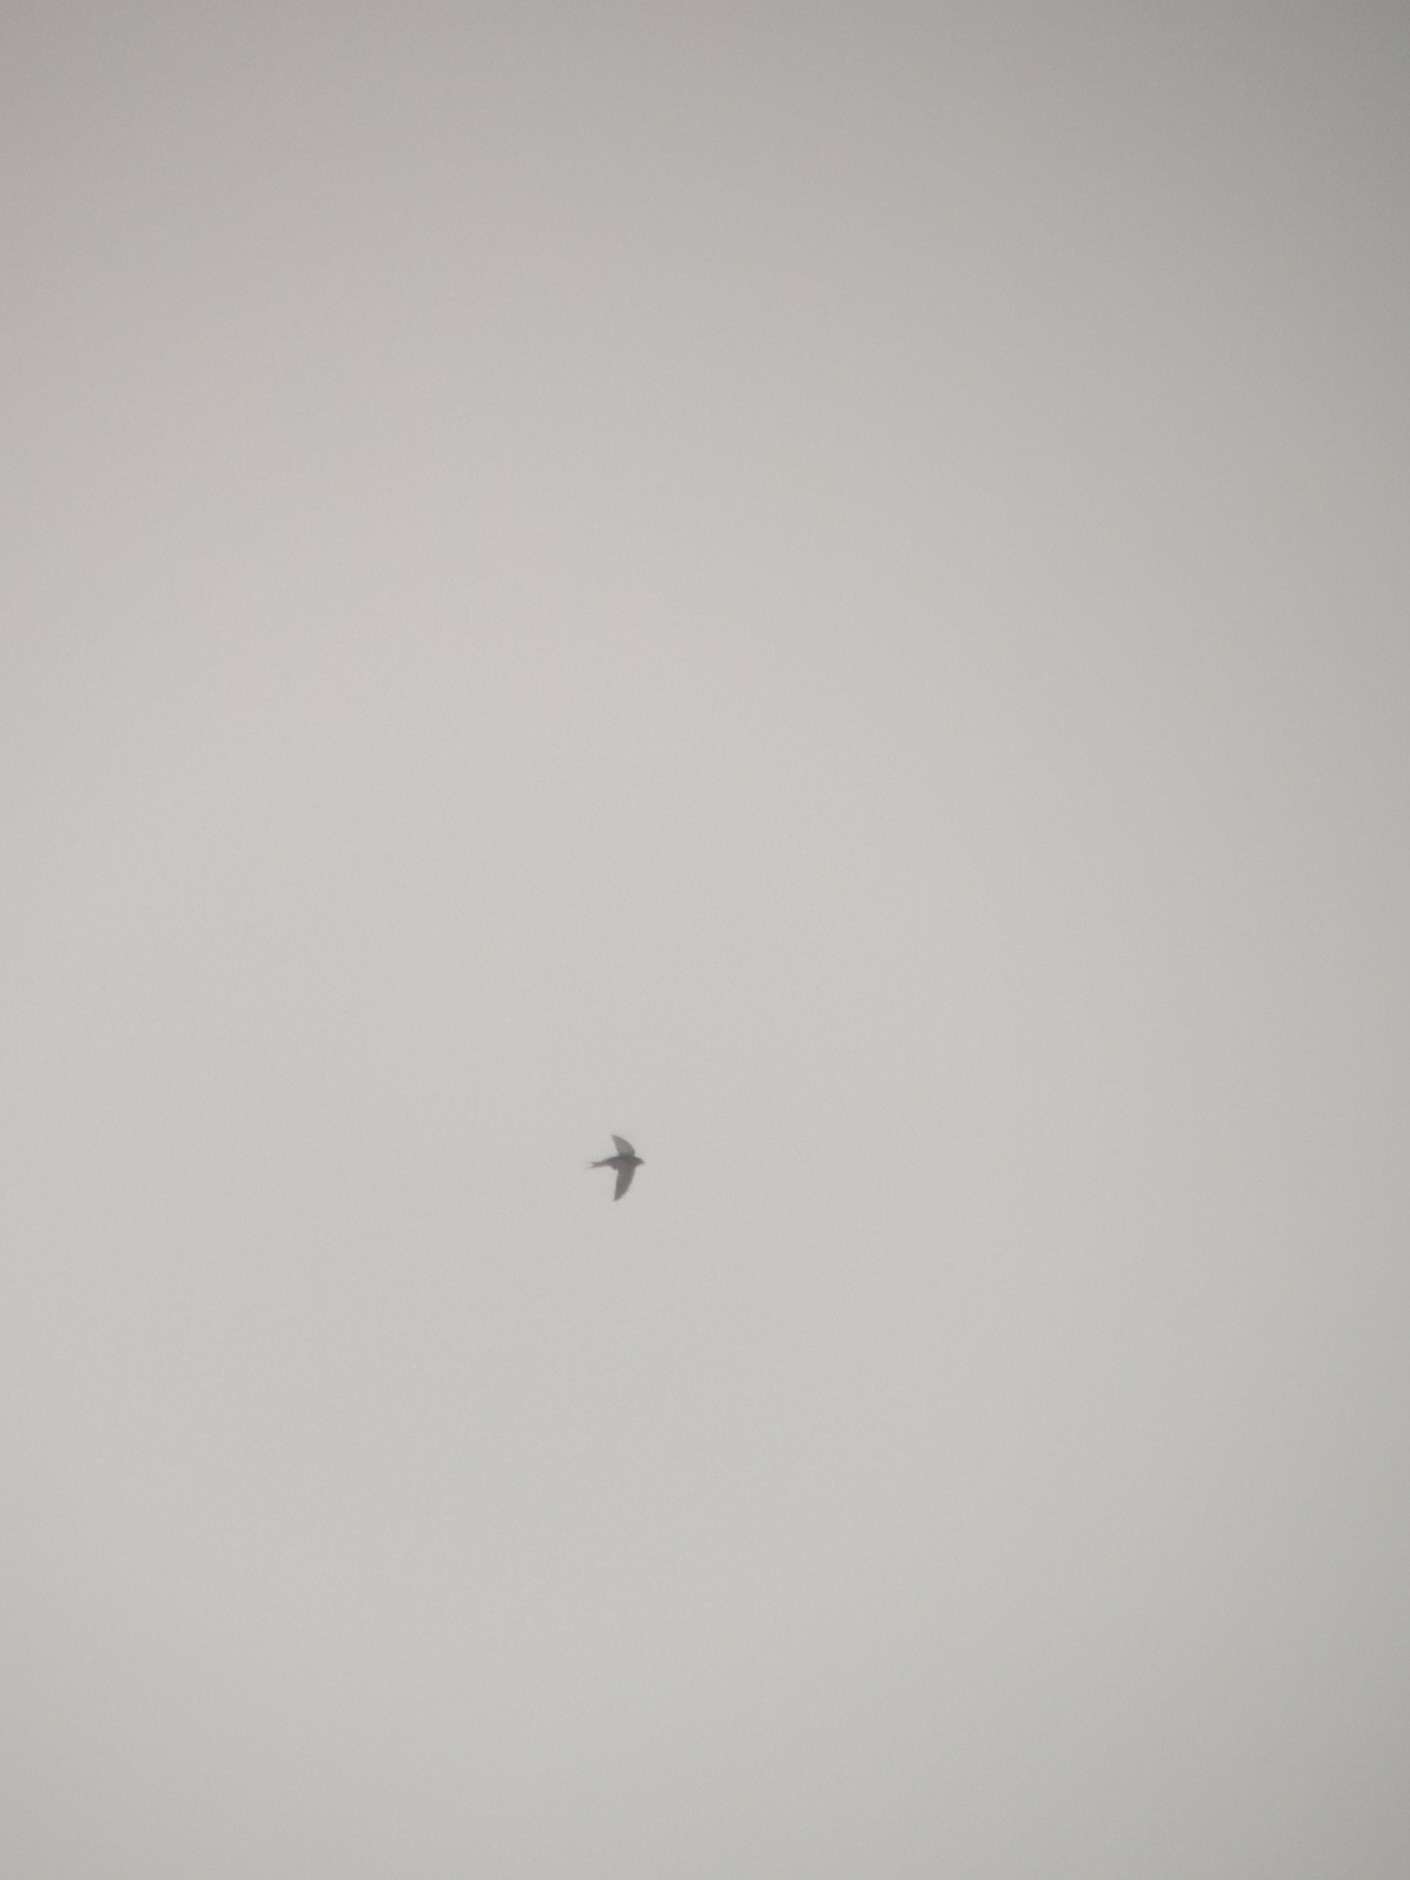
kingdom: Animalia
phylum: Chordata
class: Aves
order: Apodiformes
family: Apodidae
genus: Apus
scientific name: Apus apus
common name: Common swift
